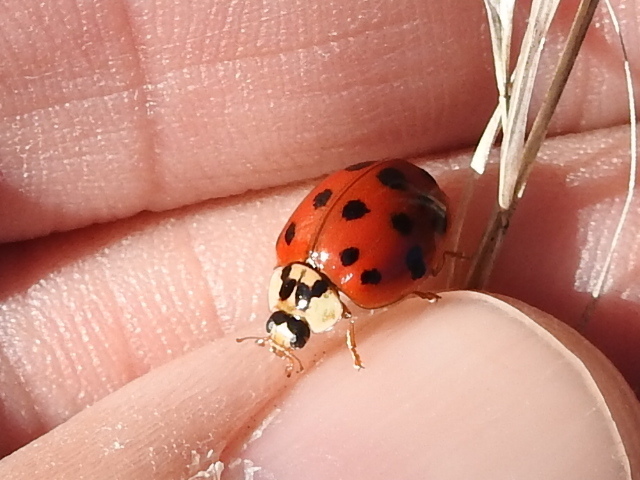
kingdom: Animalia
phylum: Arthropoda
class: Insecta
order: Coleoptera
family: Coccinellidae
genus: Harmonia
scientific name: Harmonia axyridis
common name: Harlequin ladybird
